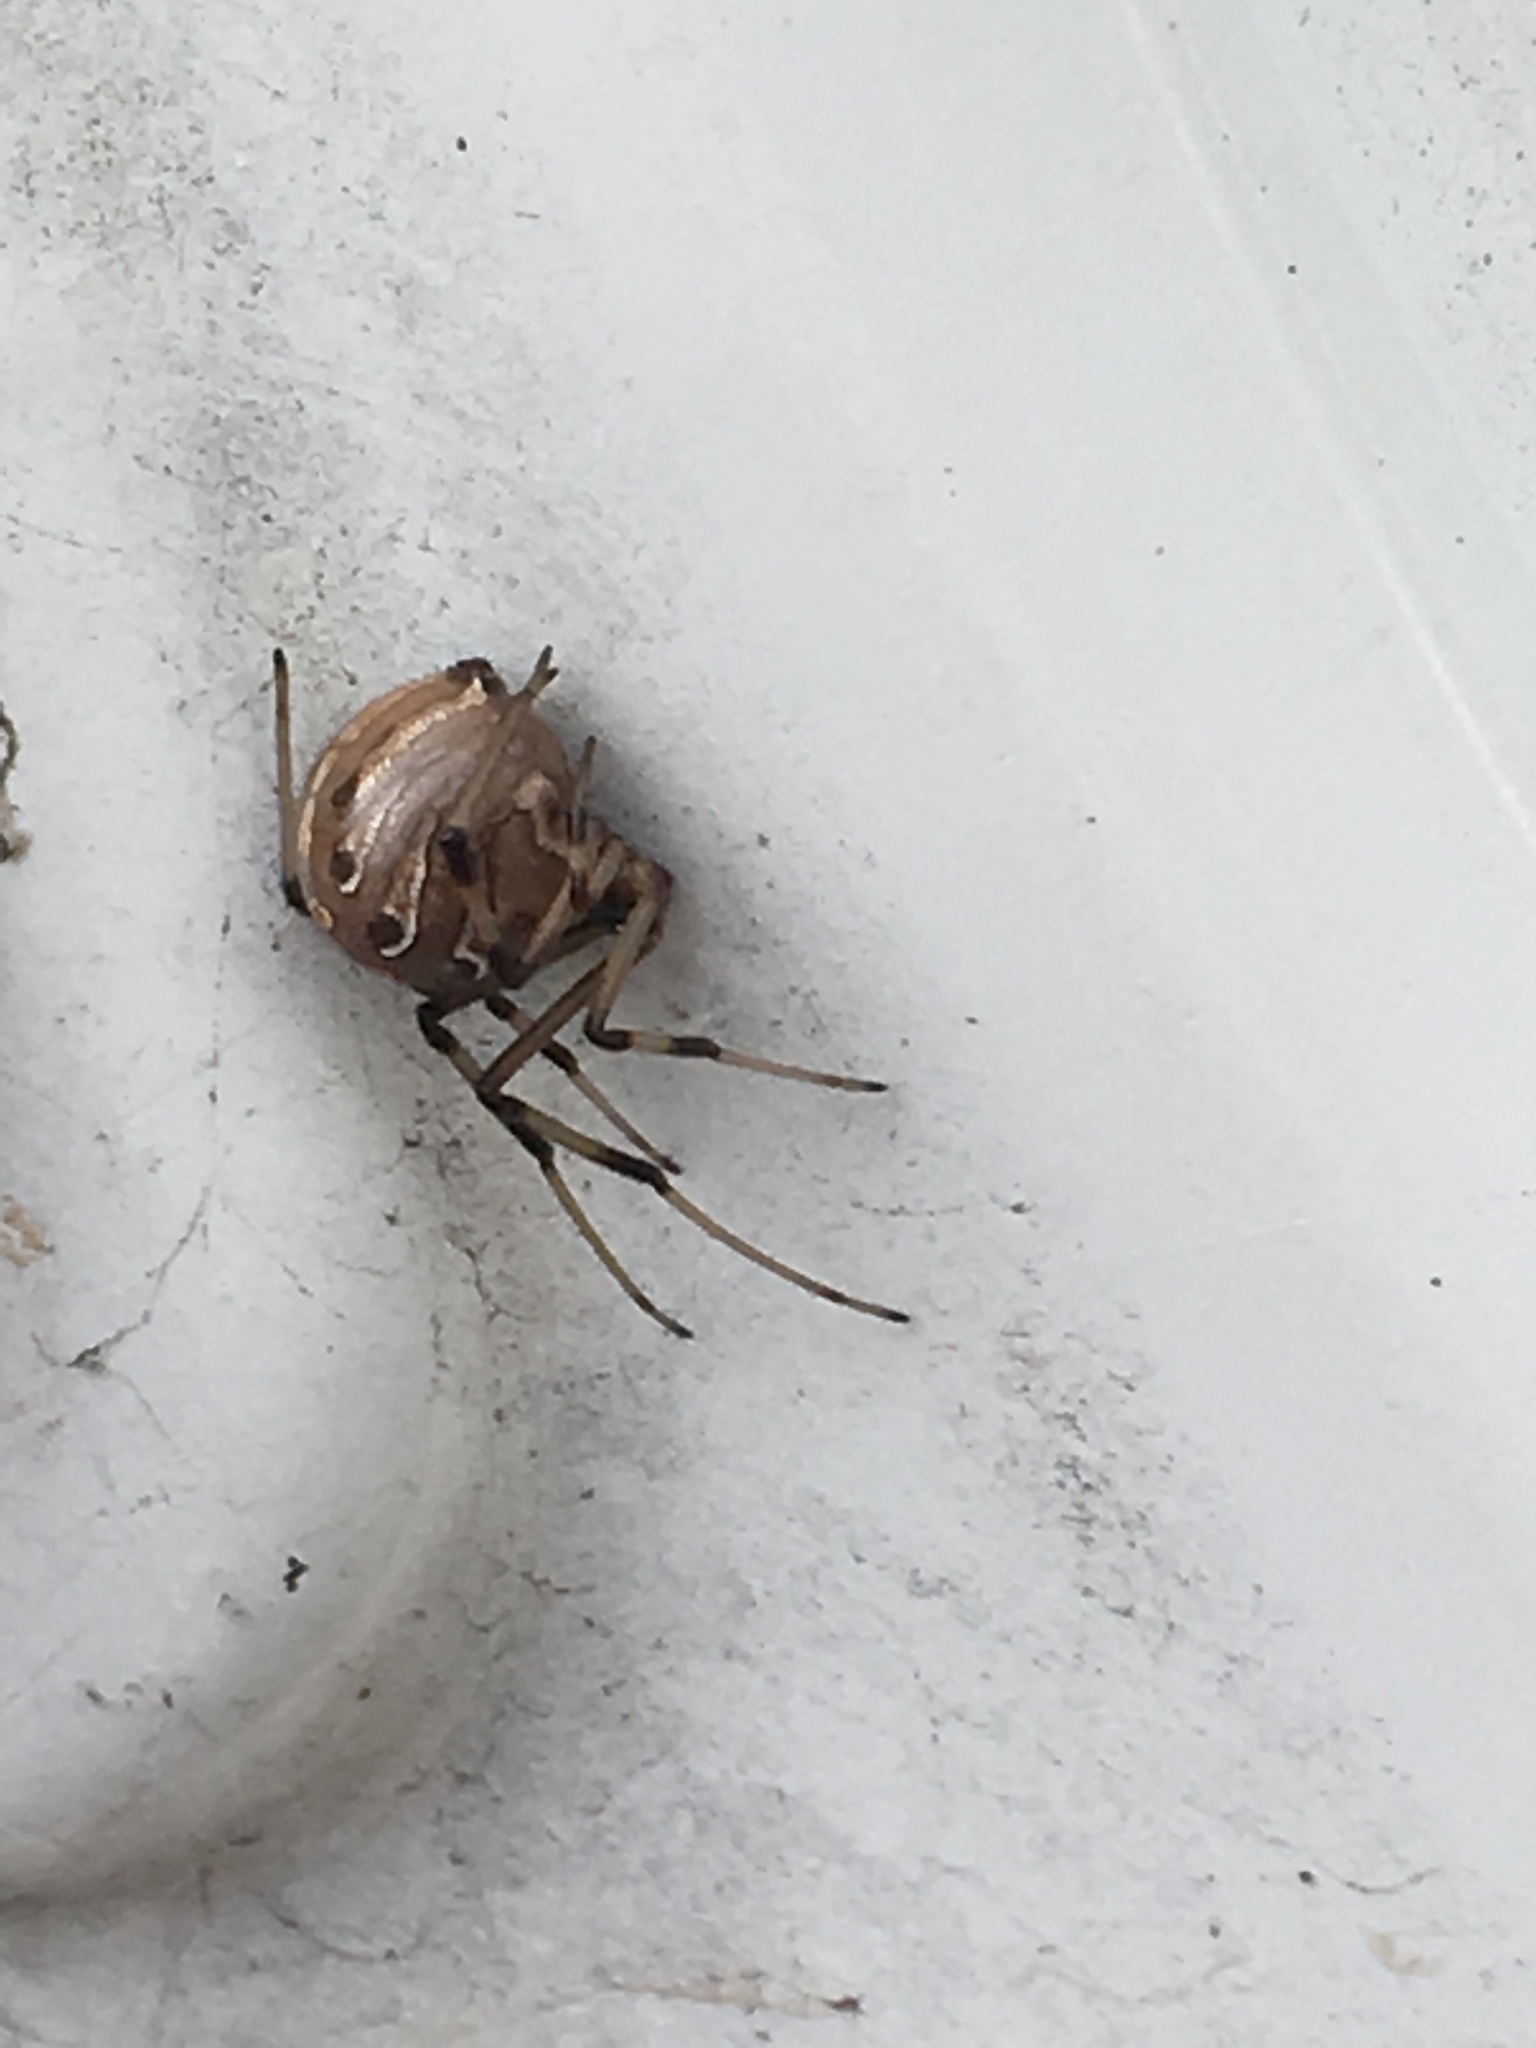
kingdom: Animalia
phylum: Arthropoda
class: Arachnida
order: Araneae
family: Theridiidae
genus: Latrodectus
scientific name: Latrodectus geometricus
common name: Brown widow spider
